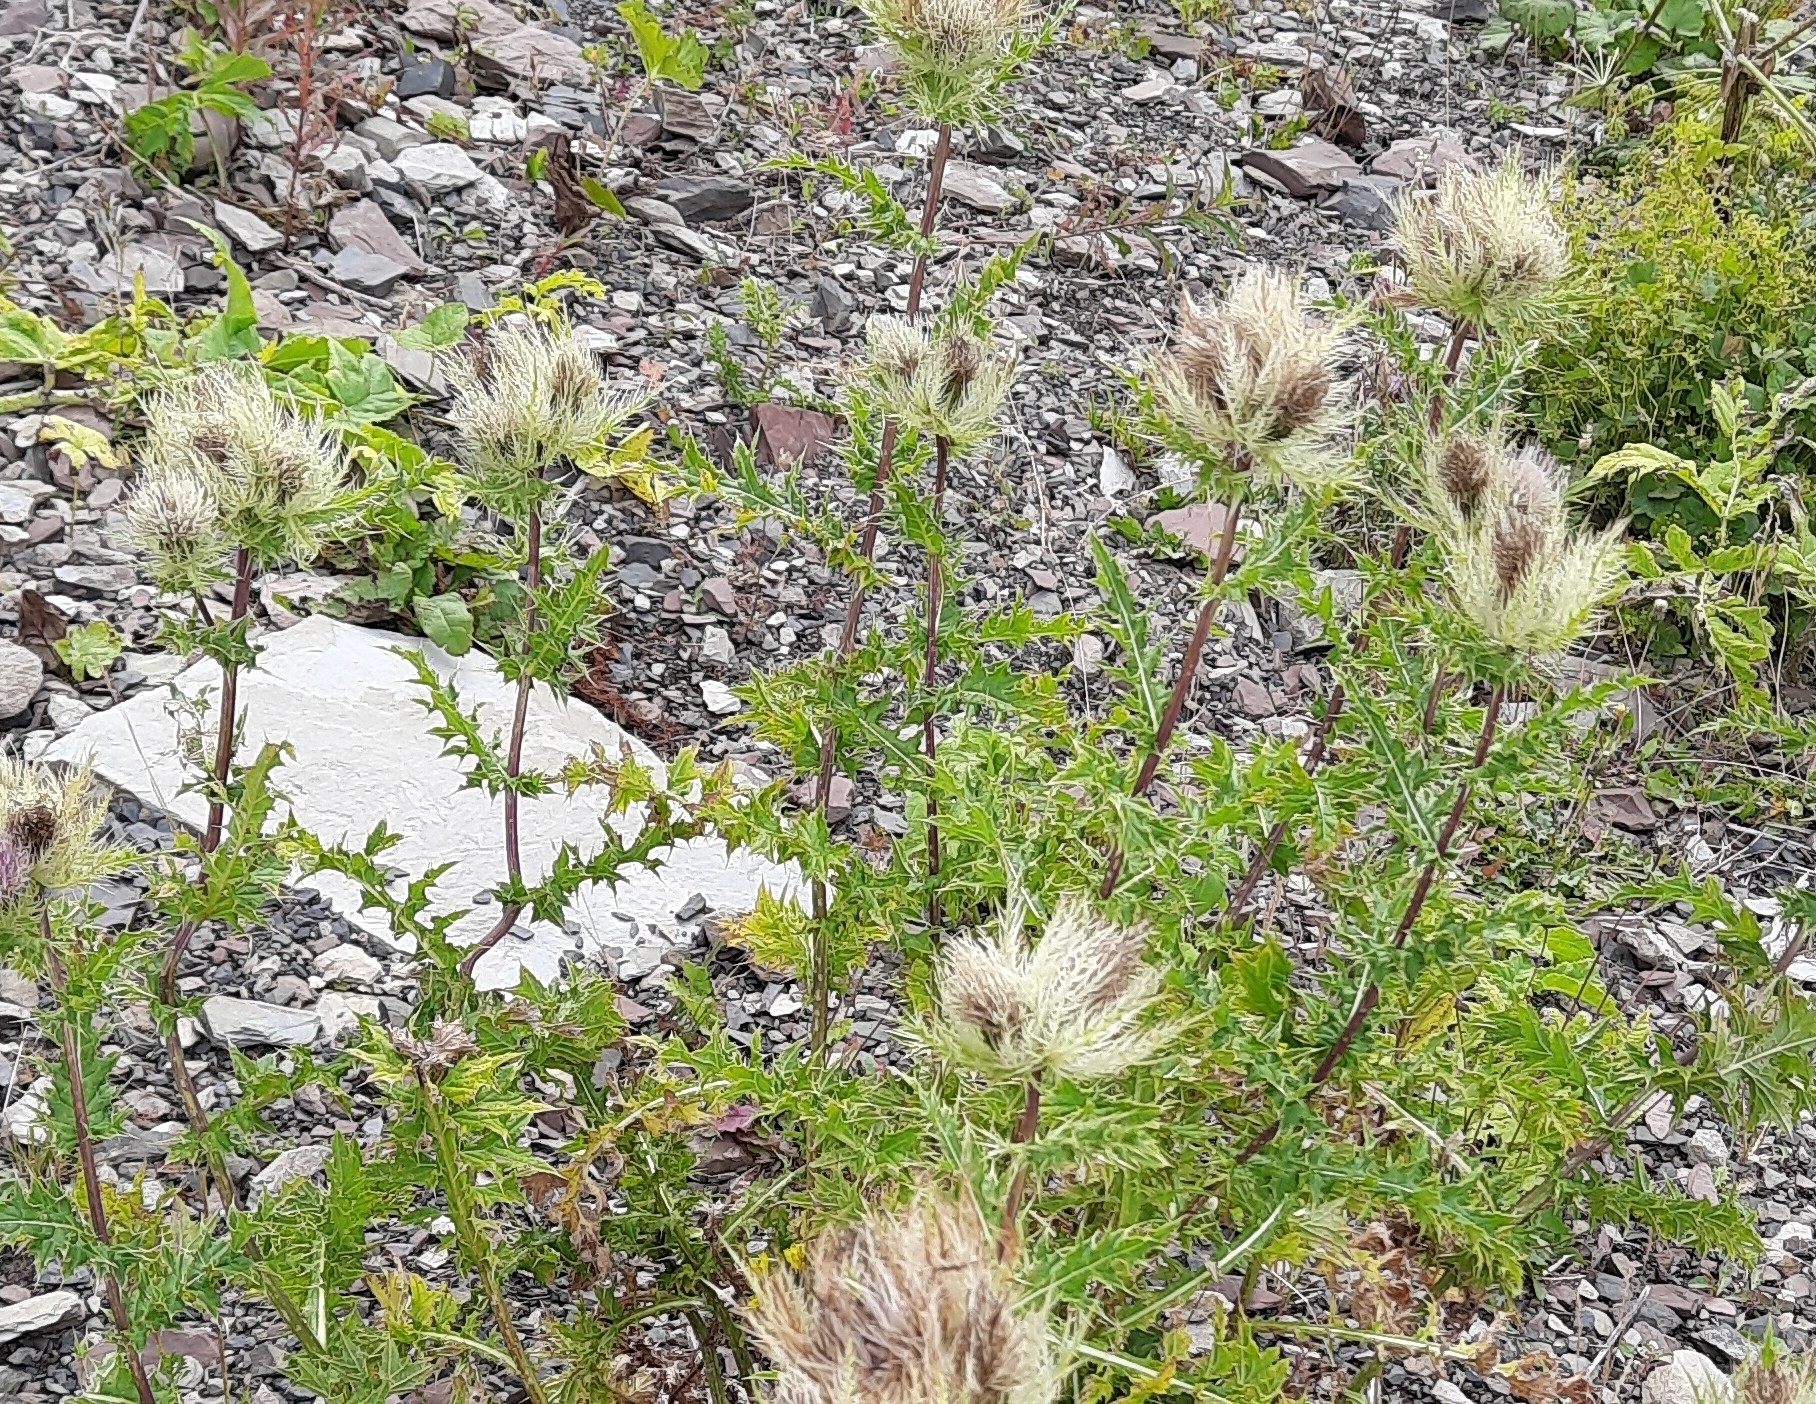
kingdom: Plantae
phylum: Tracheophyta
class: Magnoliopsida
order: Asterales
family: Asteraceae
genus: Cirsium
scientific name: Cirsium obvallatum
